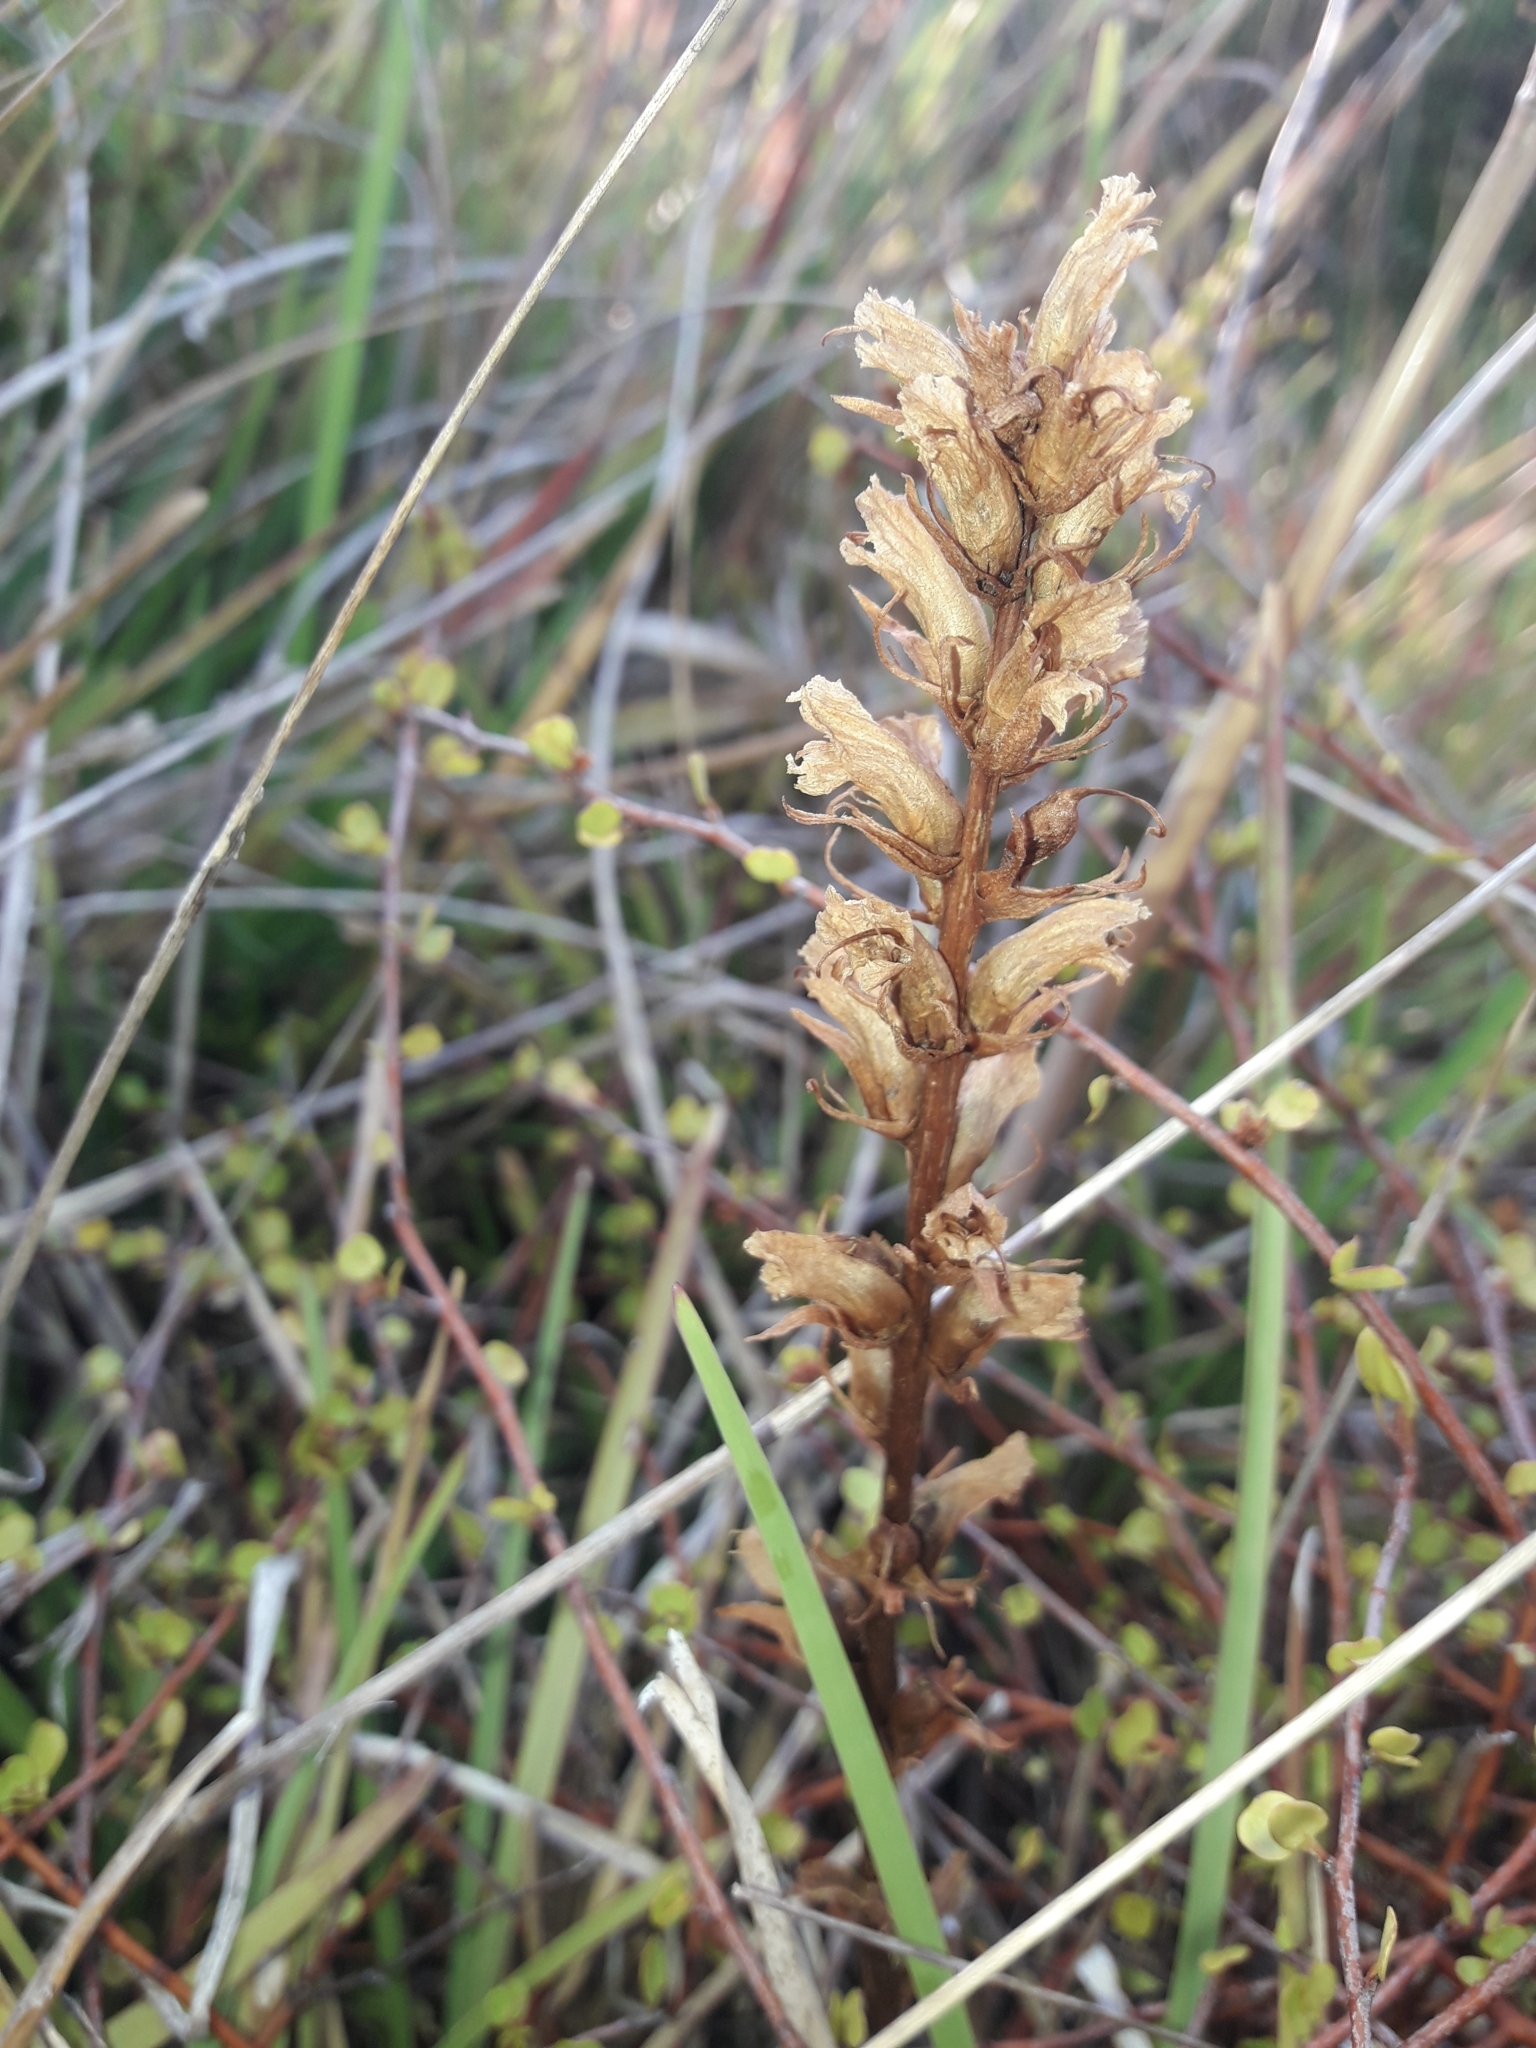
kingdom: Plantae
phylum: Tracheophyta
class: Magnoliopsida
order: Lamiales
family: Orobanchaceae
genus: Orobanche
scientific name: Orobanche minor
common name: Common broomrape
